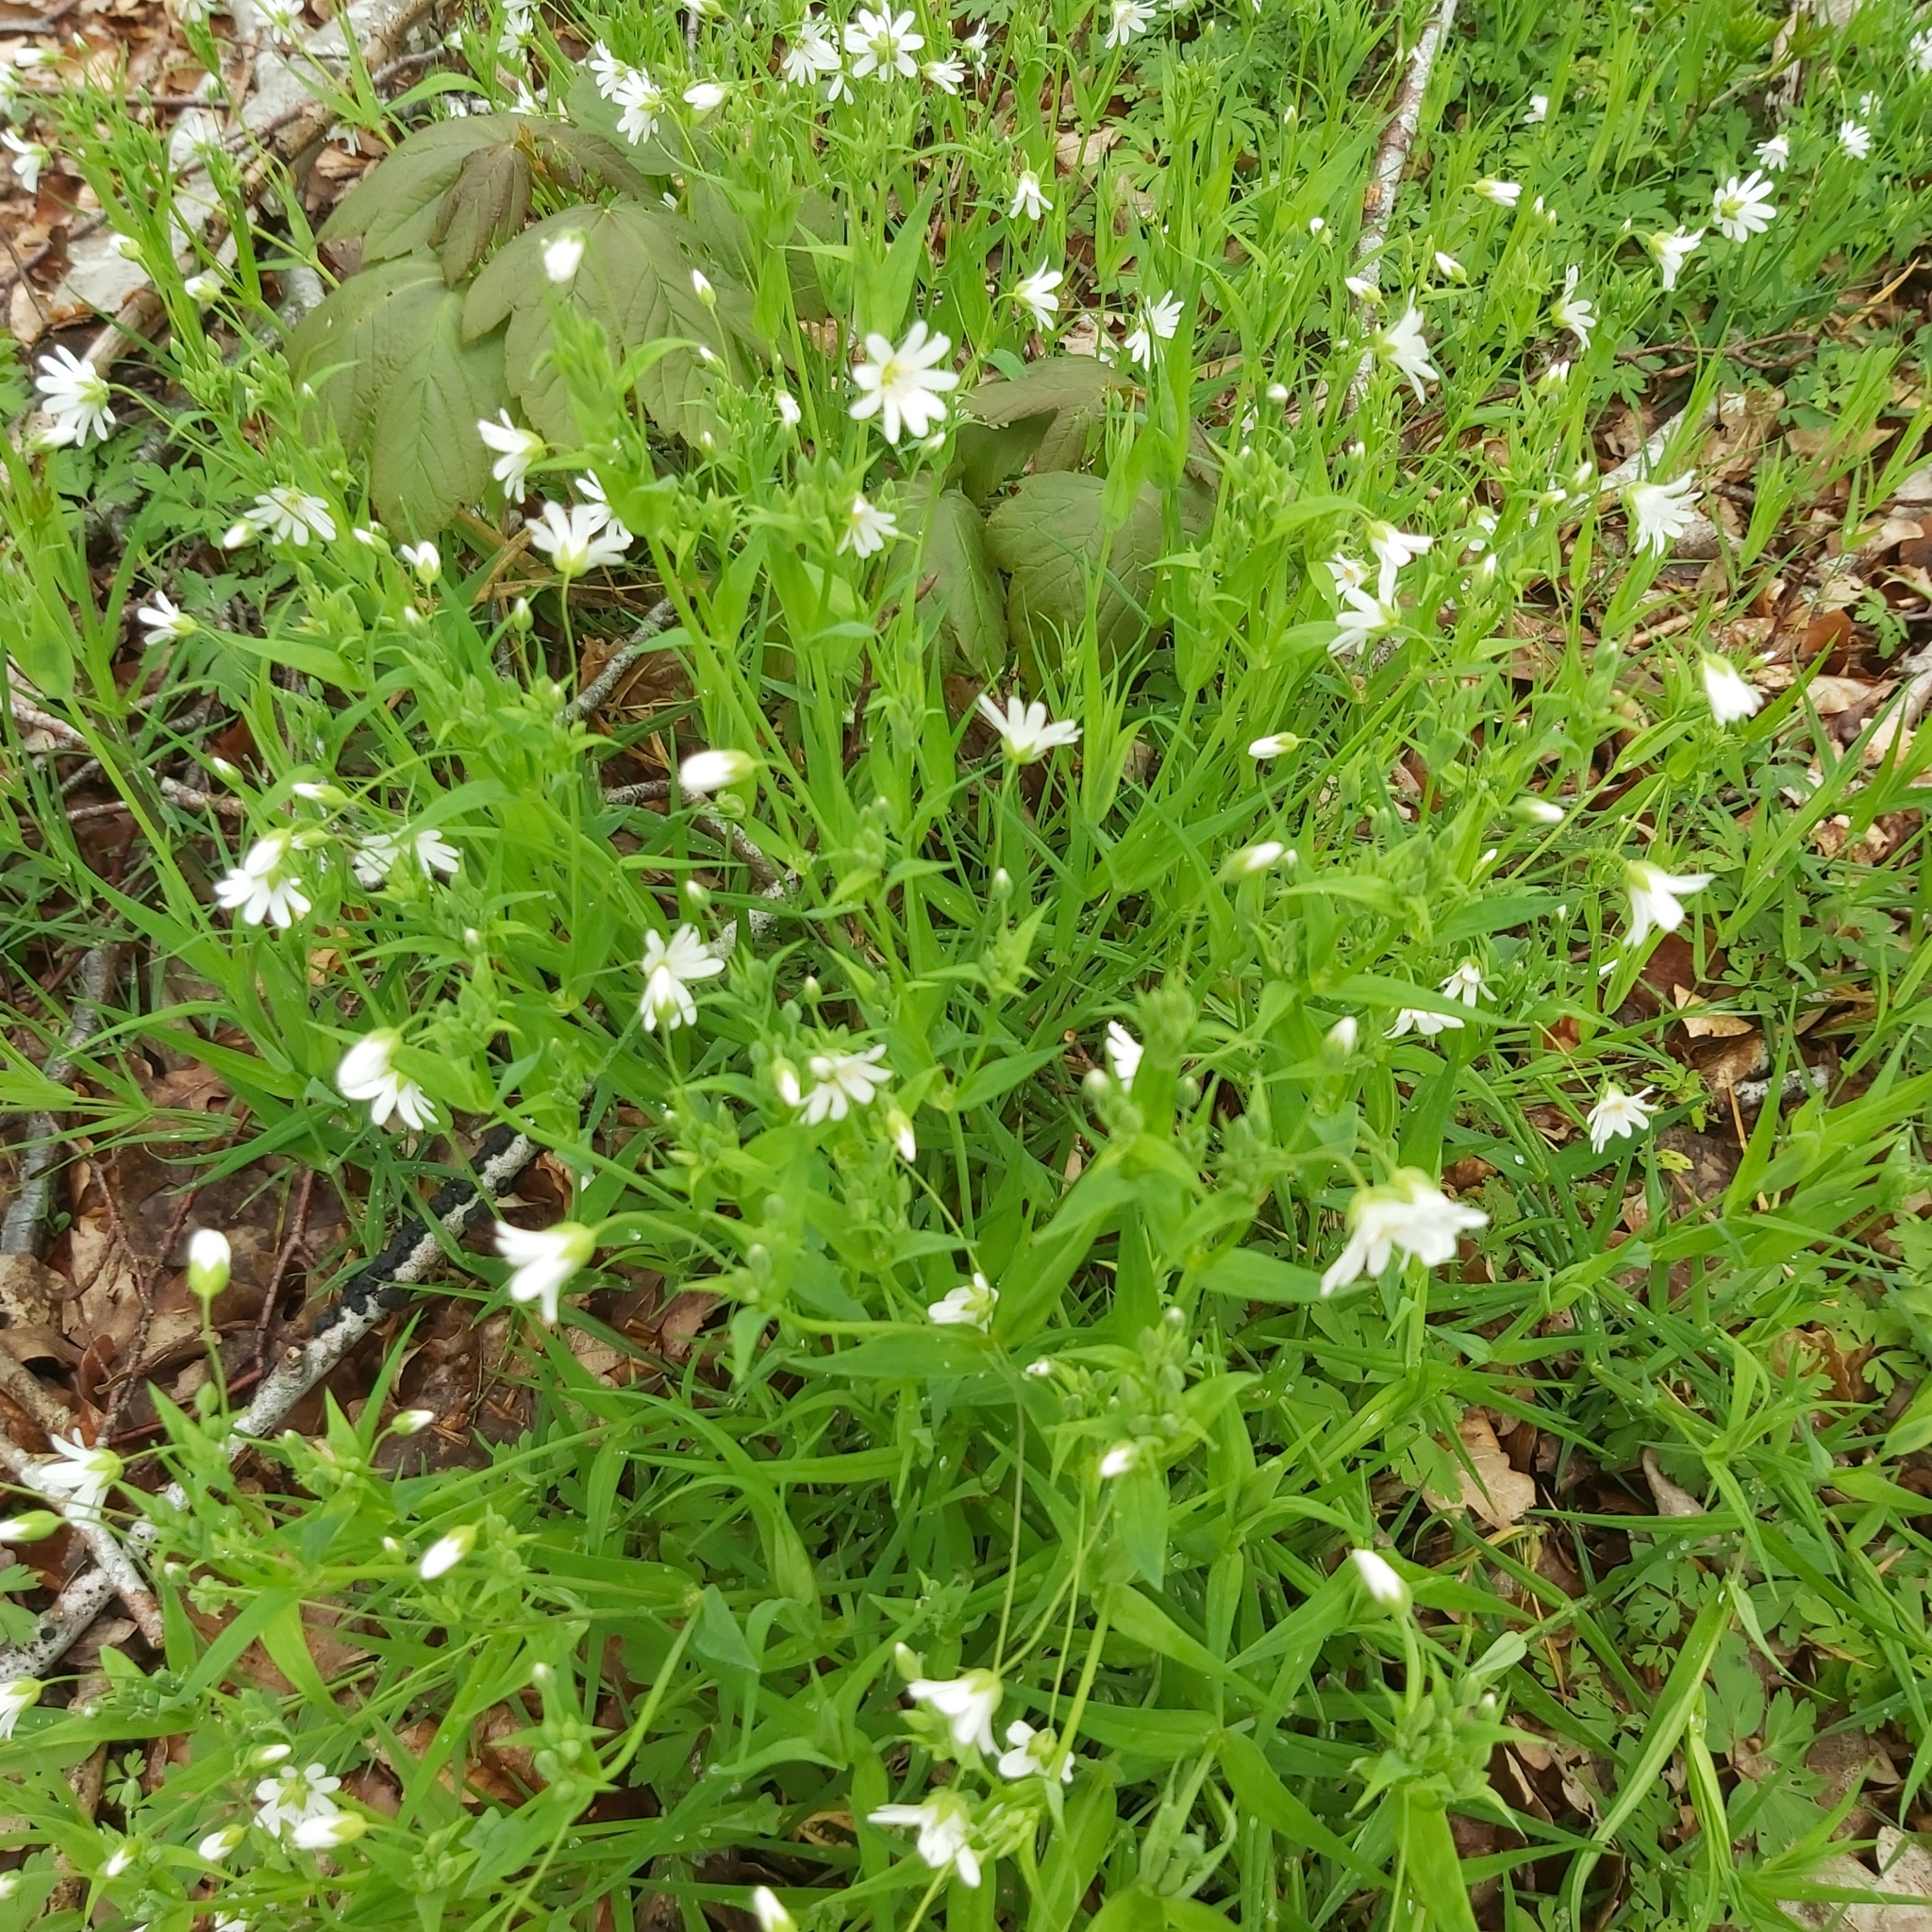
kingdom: Plantae
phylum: Tracheophyta
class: Magnoliopsida
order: Caryophyllales
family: Caryophyllaceae
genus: Rabelera
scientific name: Rabelera holostea
